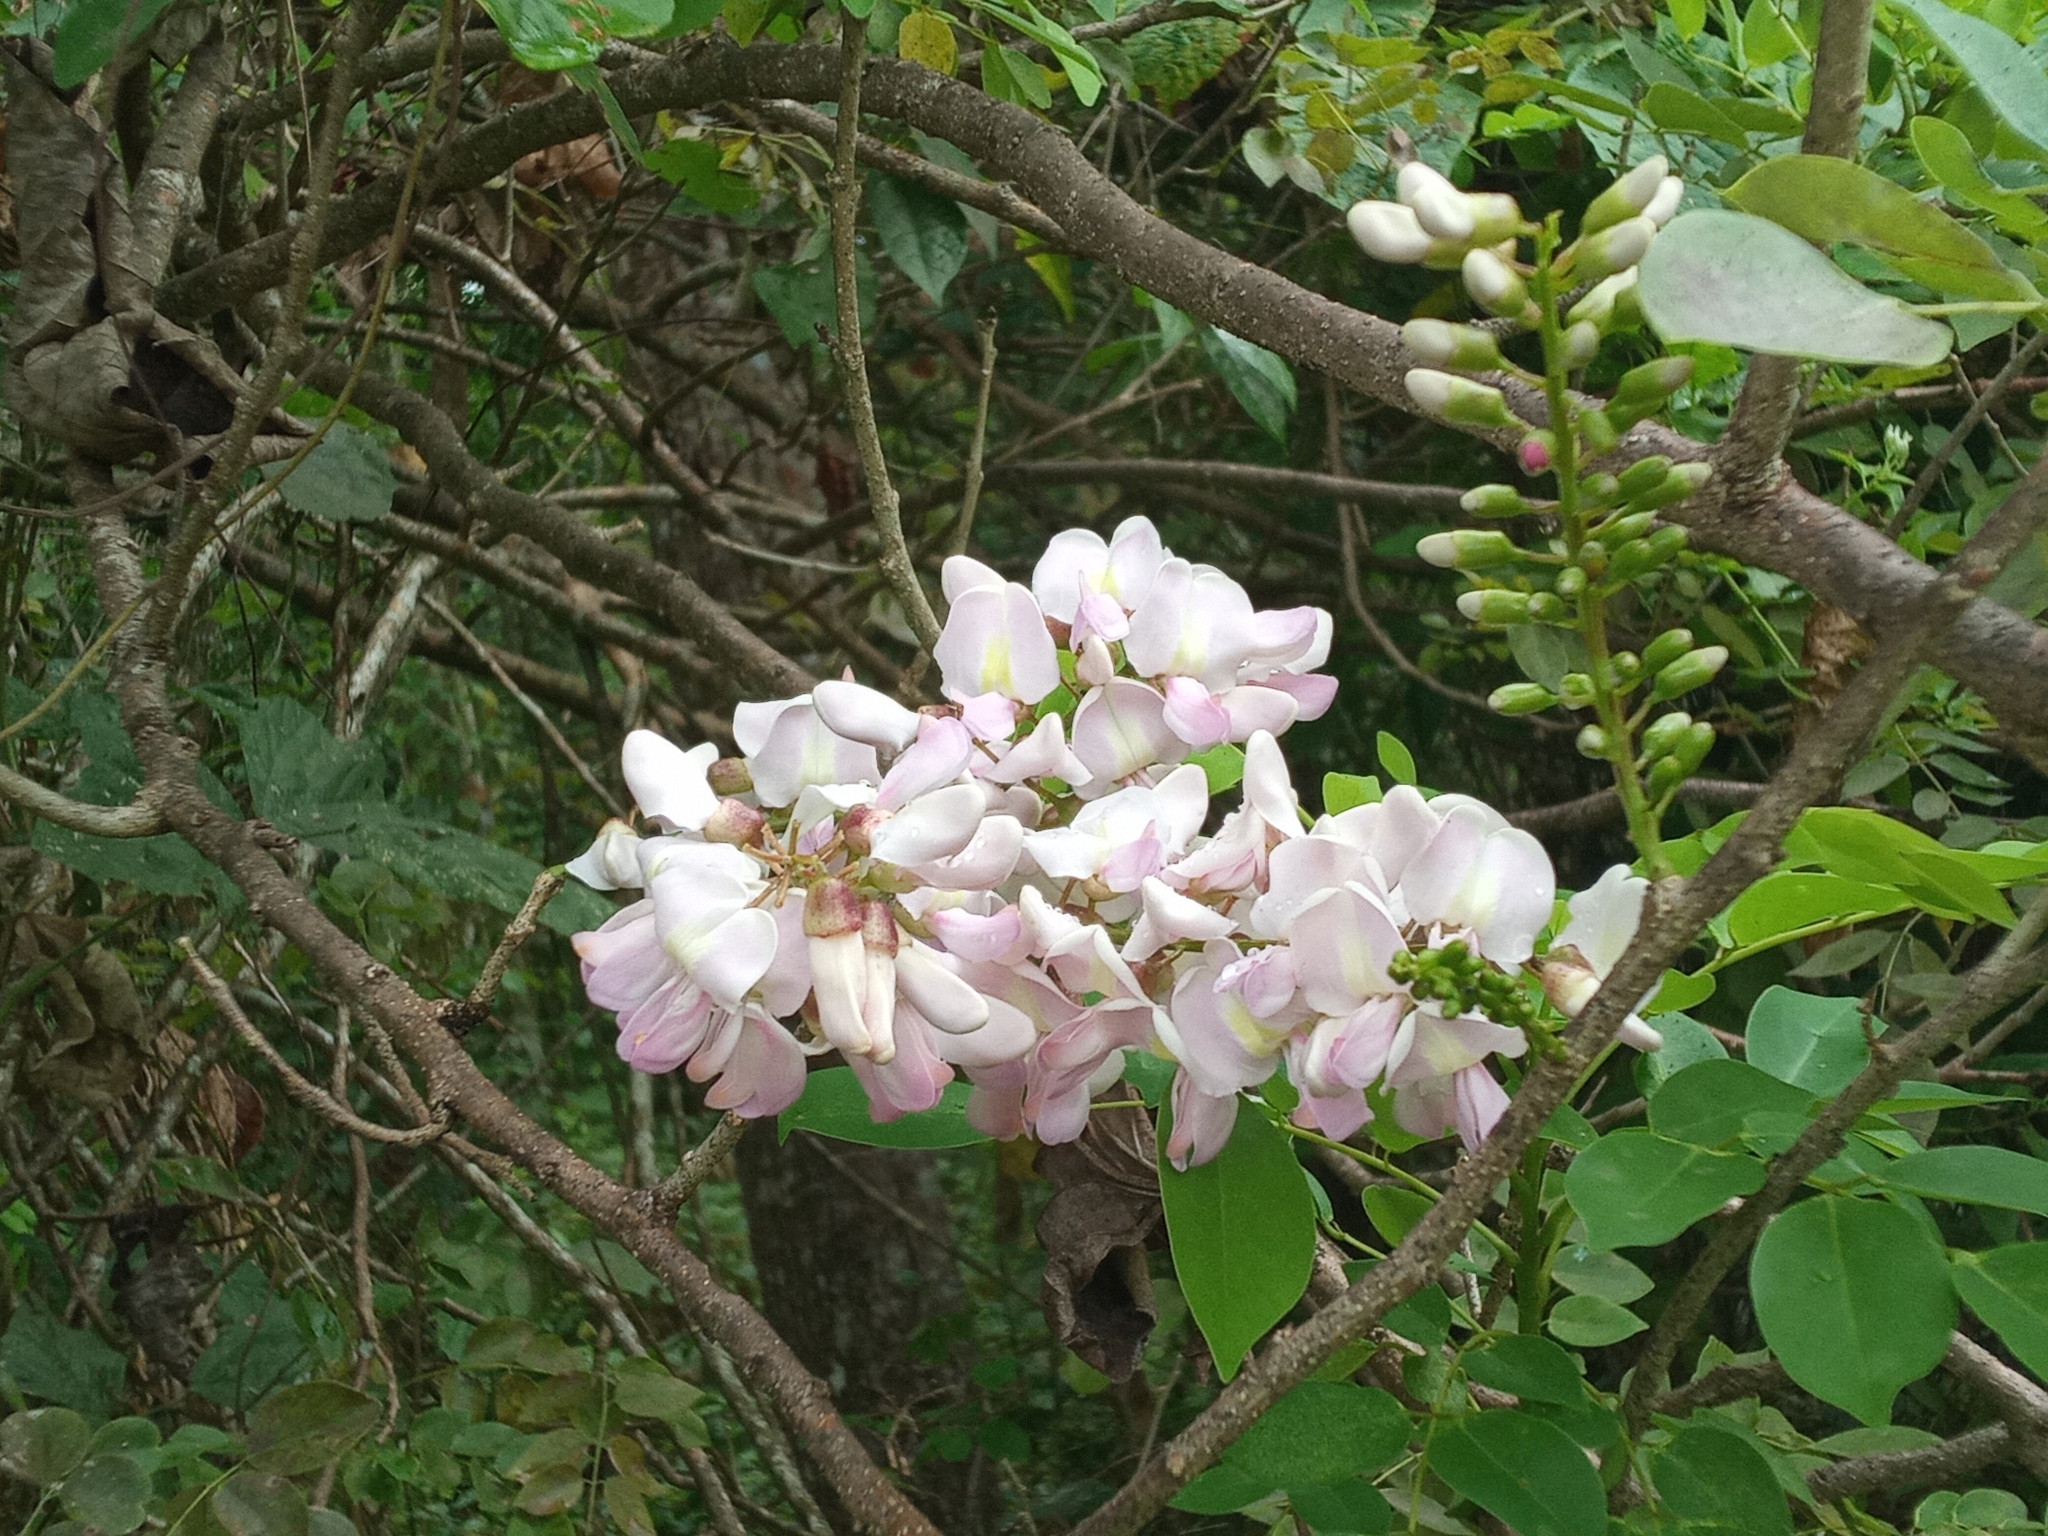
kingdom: Plantae
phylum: Tracheophyta
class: Magnoliopsida
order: Fabales
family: Fabaceae
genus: Gliricidia
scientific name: Gliricidia sepium
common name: Quickstick
